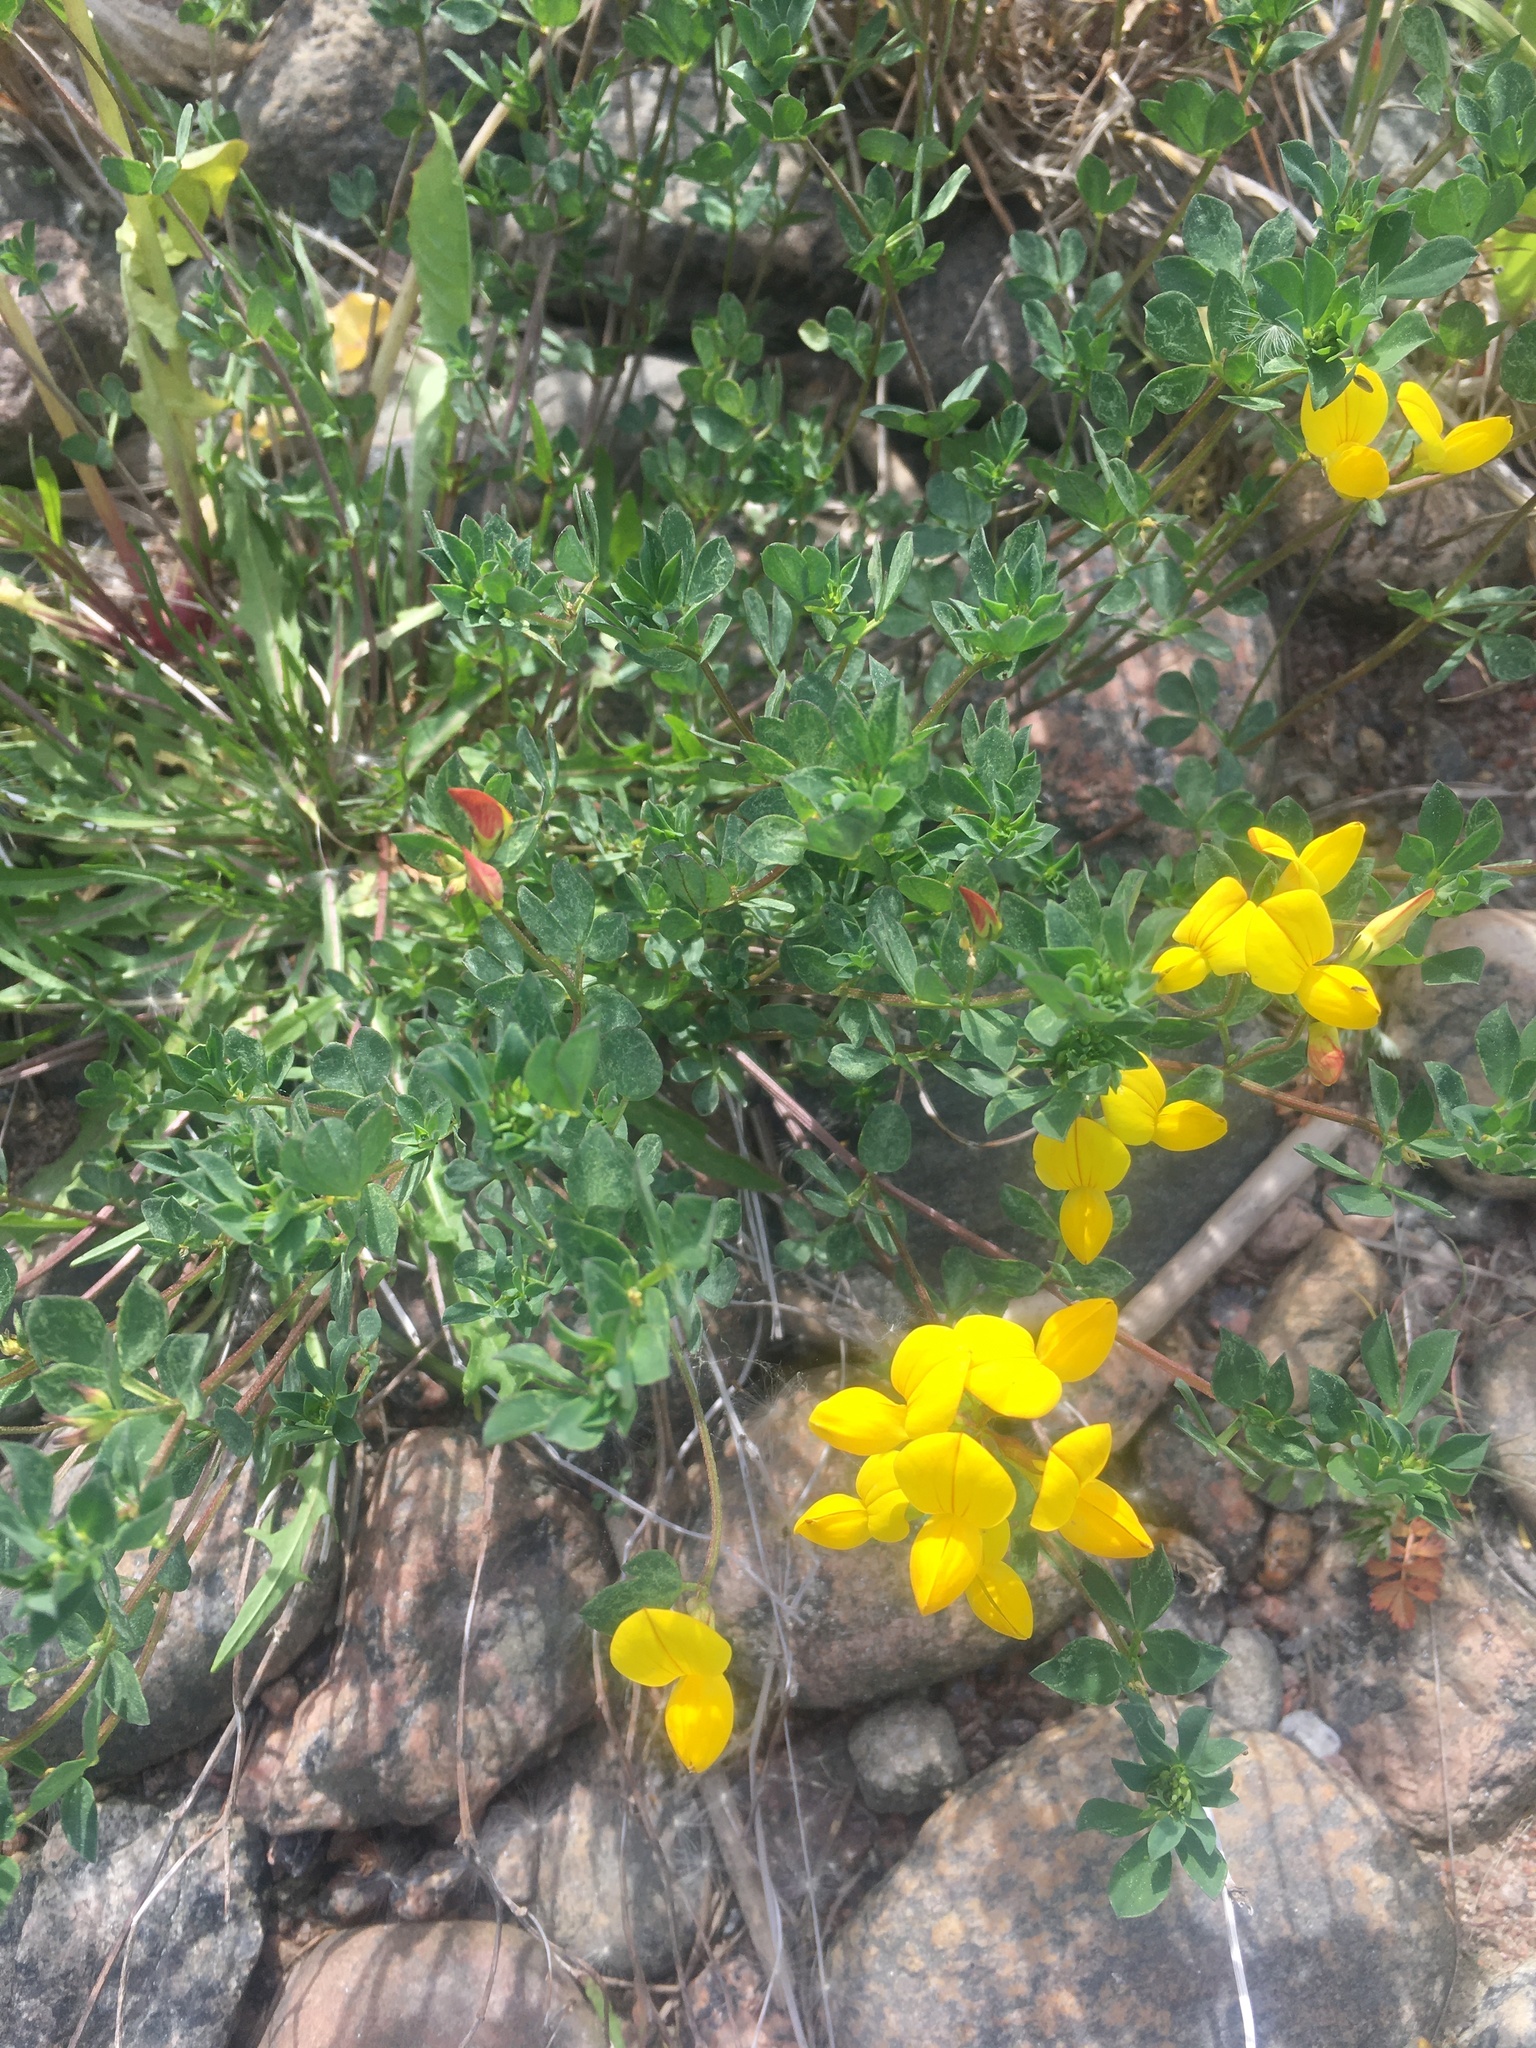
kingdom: Plantae
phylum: Tracheophyta
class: Magnoliopsida
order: Fabales
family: Fabaceae
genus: Lotus
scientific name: Lotus corniculatus
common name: Common bird's-foot-trefoil
